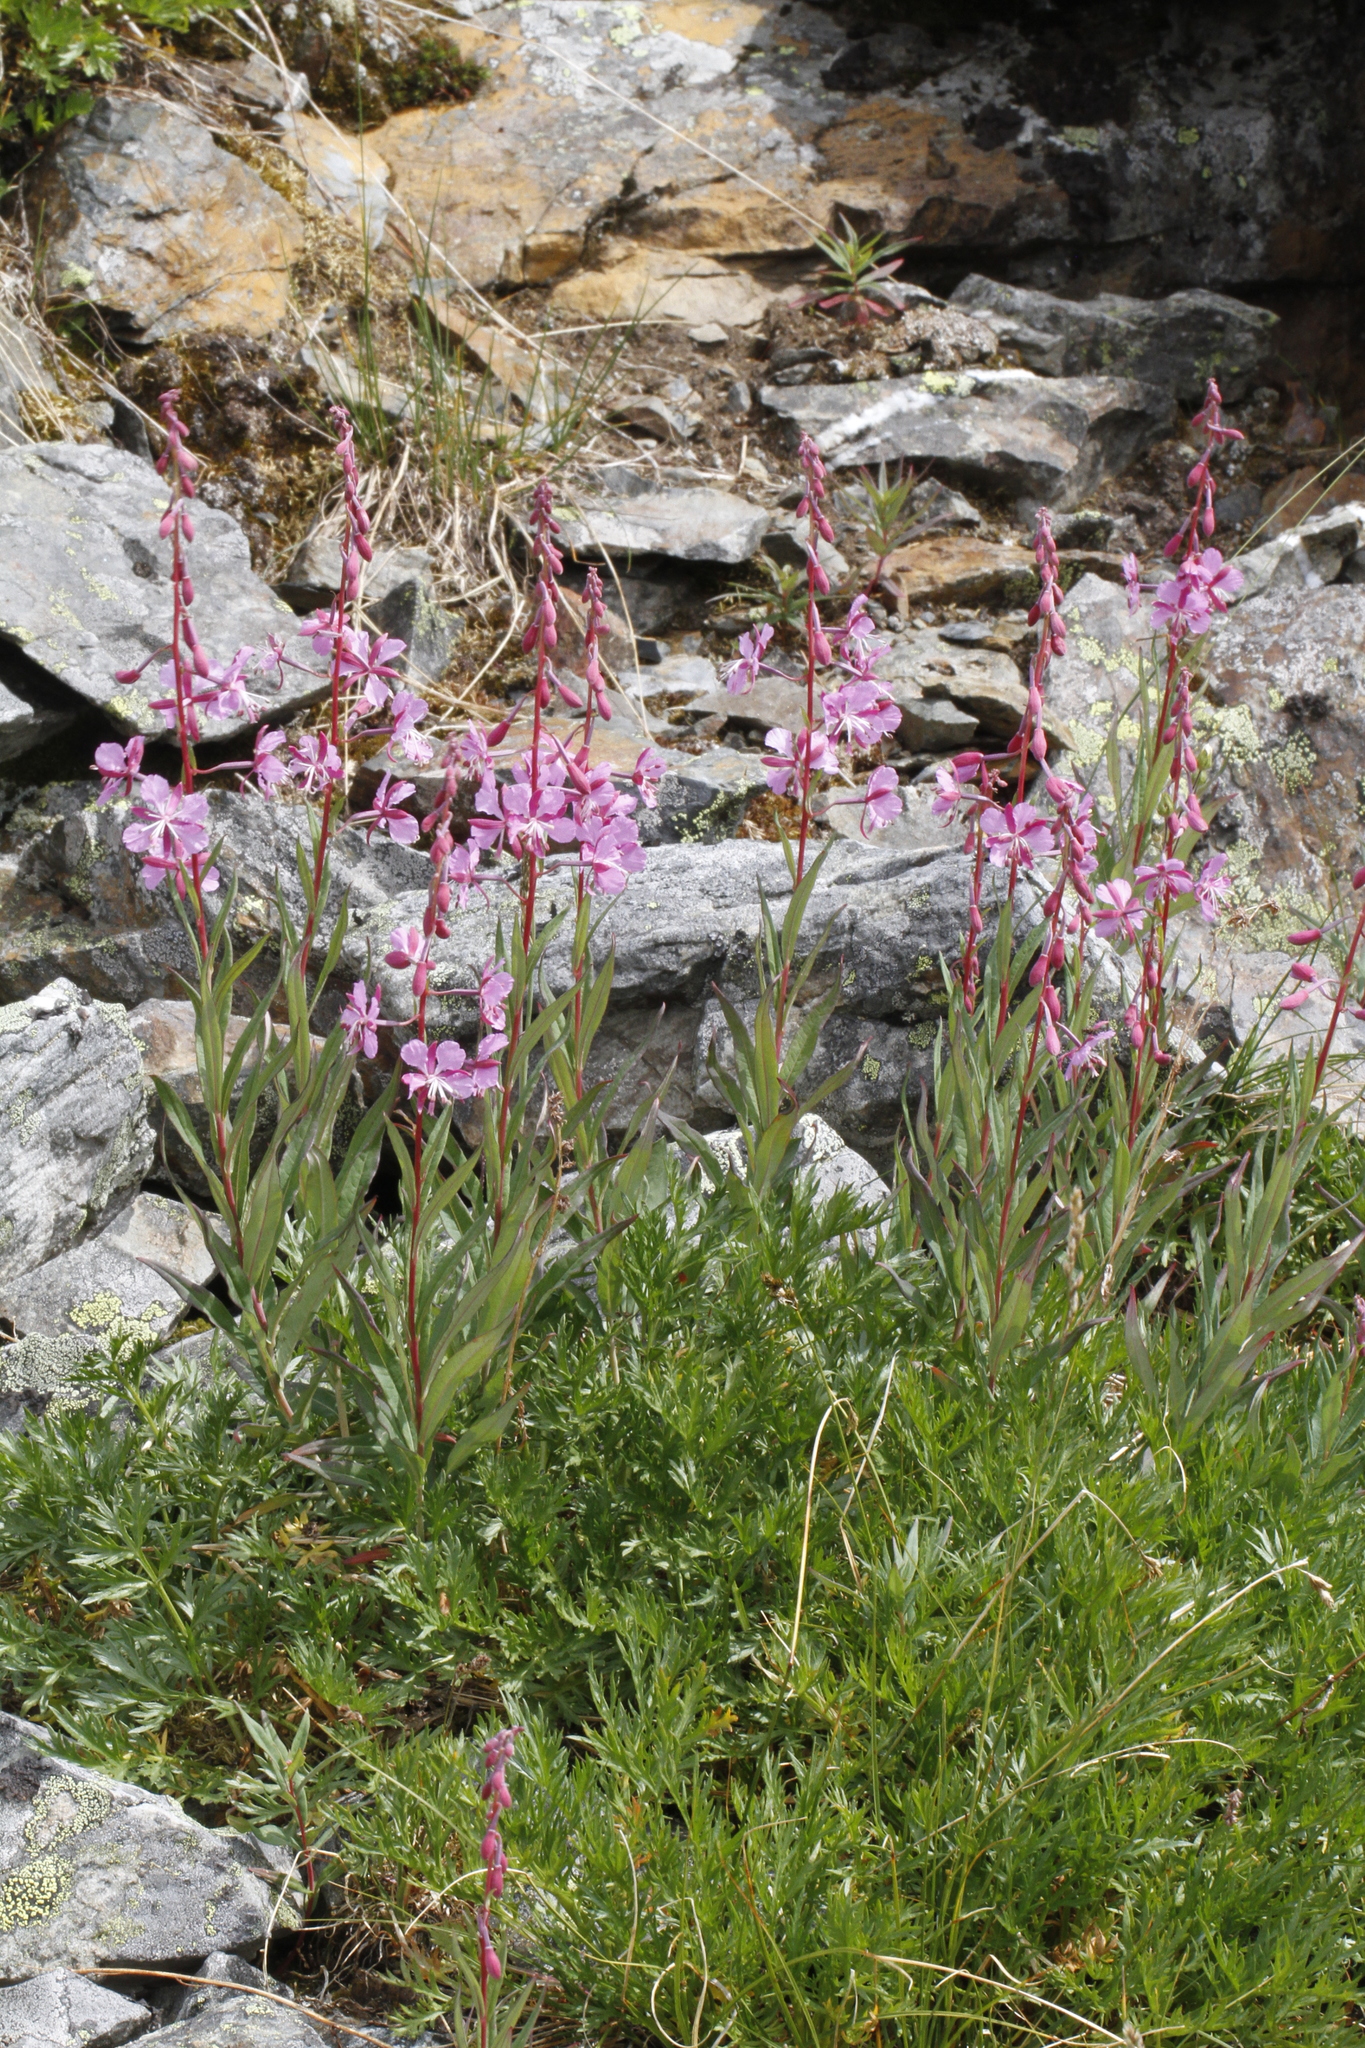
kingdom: Plantae
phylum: Tracheophyta
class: Magnoliopsida
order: Myrtales
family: Onagraceae
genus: Chamaenerion
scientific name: Chamaenerion angustifolium
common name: Fireweed
